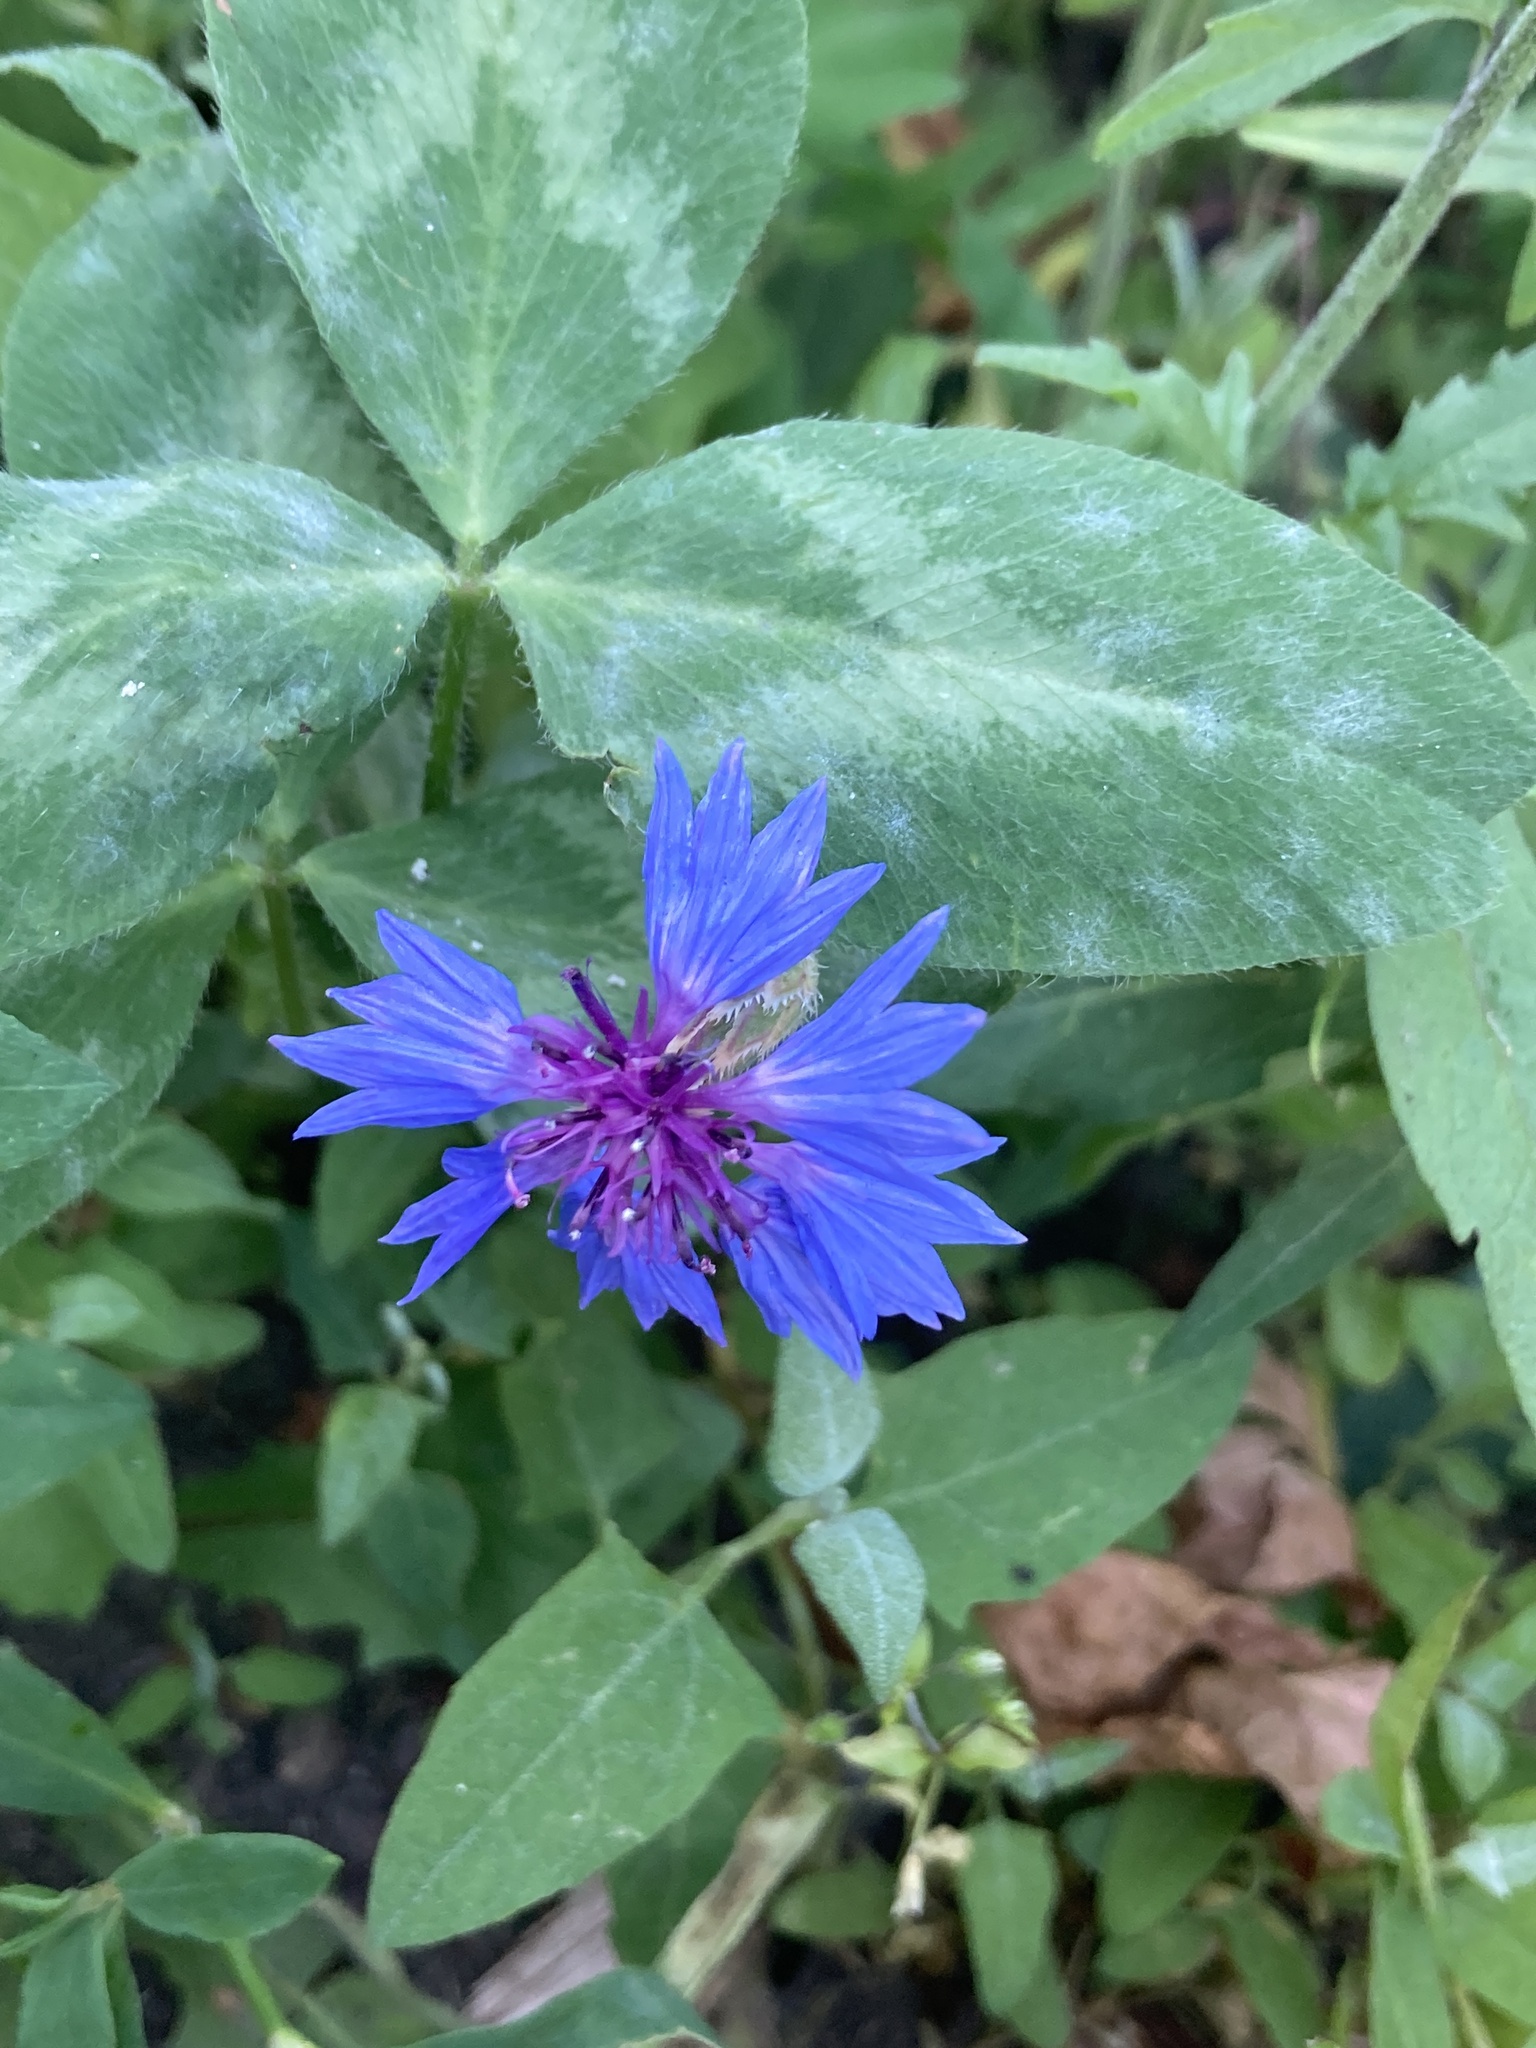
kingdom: Plantae
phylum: Tracheophyta
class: Magnoliopsida
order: Asterales
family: Asteraceae
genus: Centaurea
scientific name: Centaurea cyanus
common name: Cornflower
